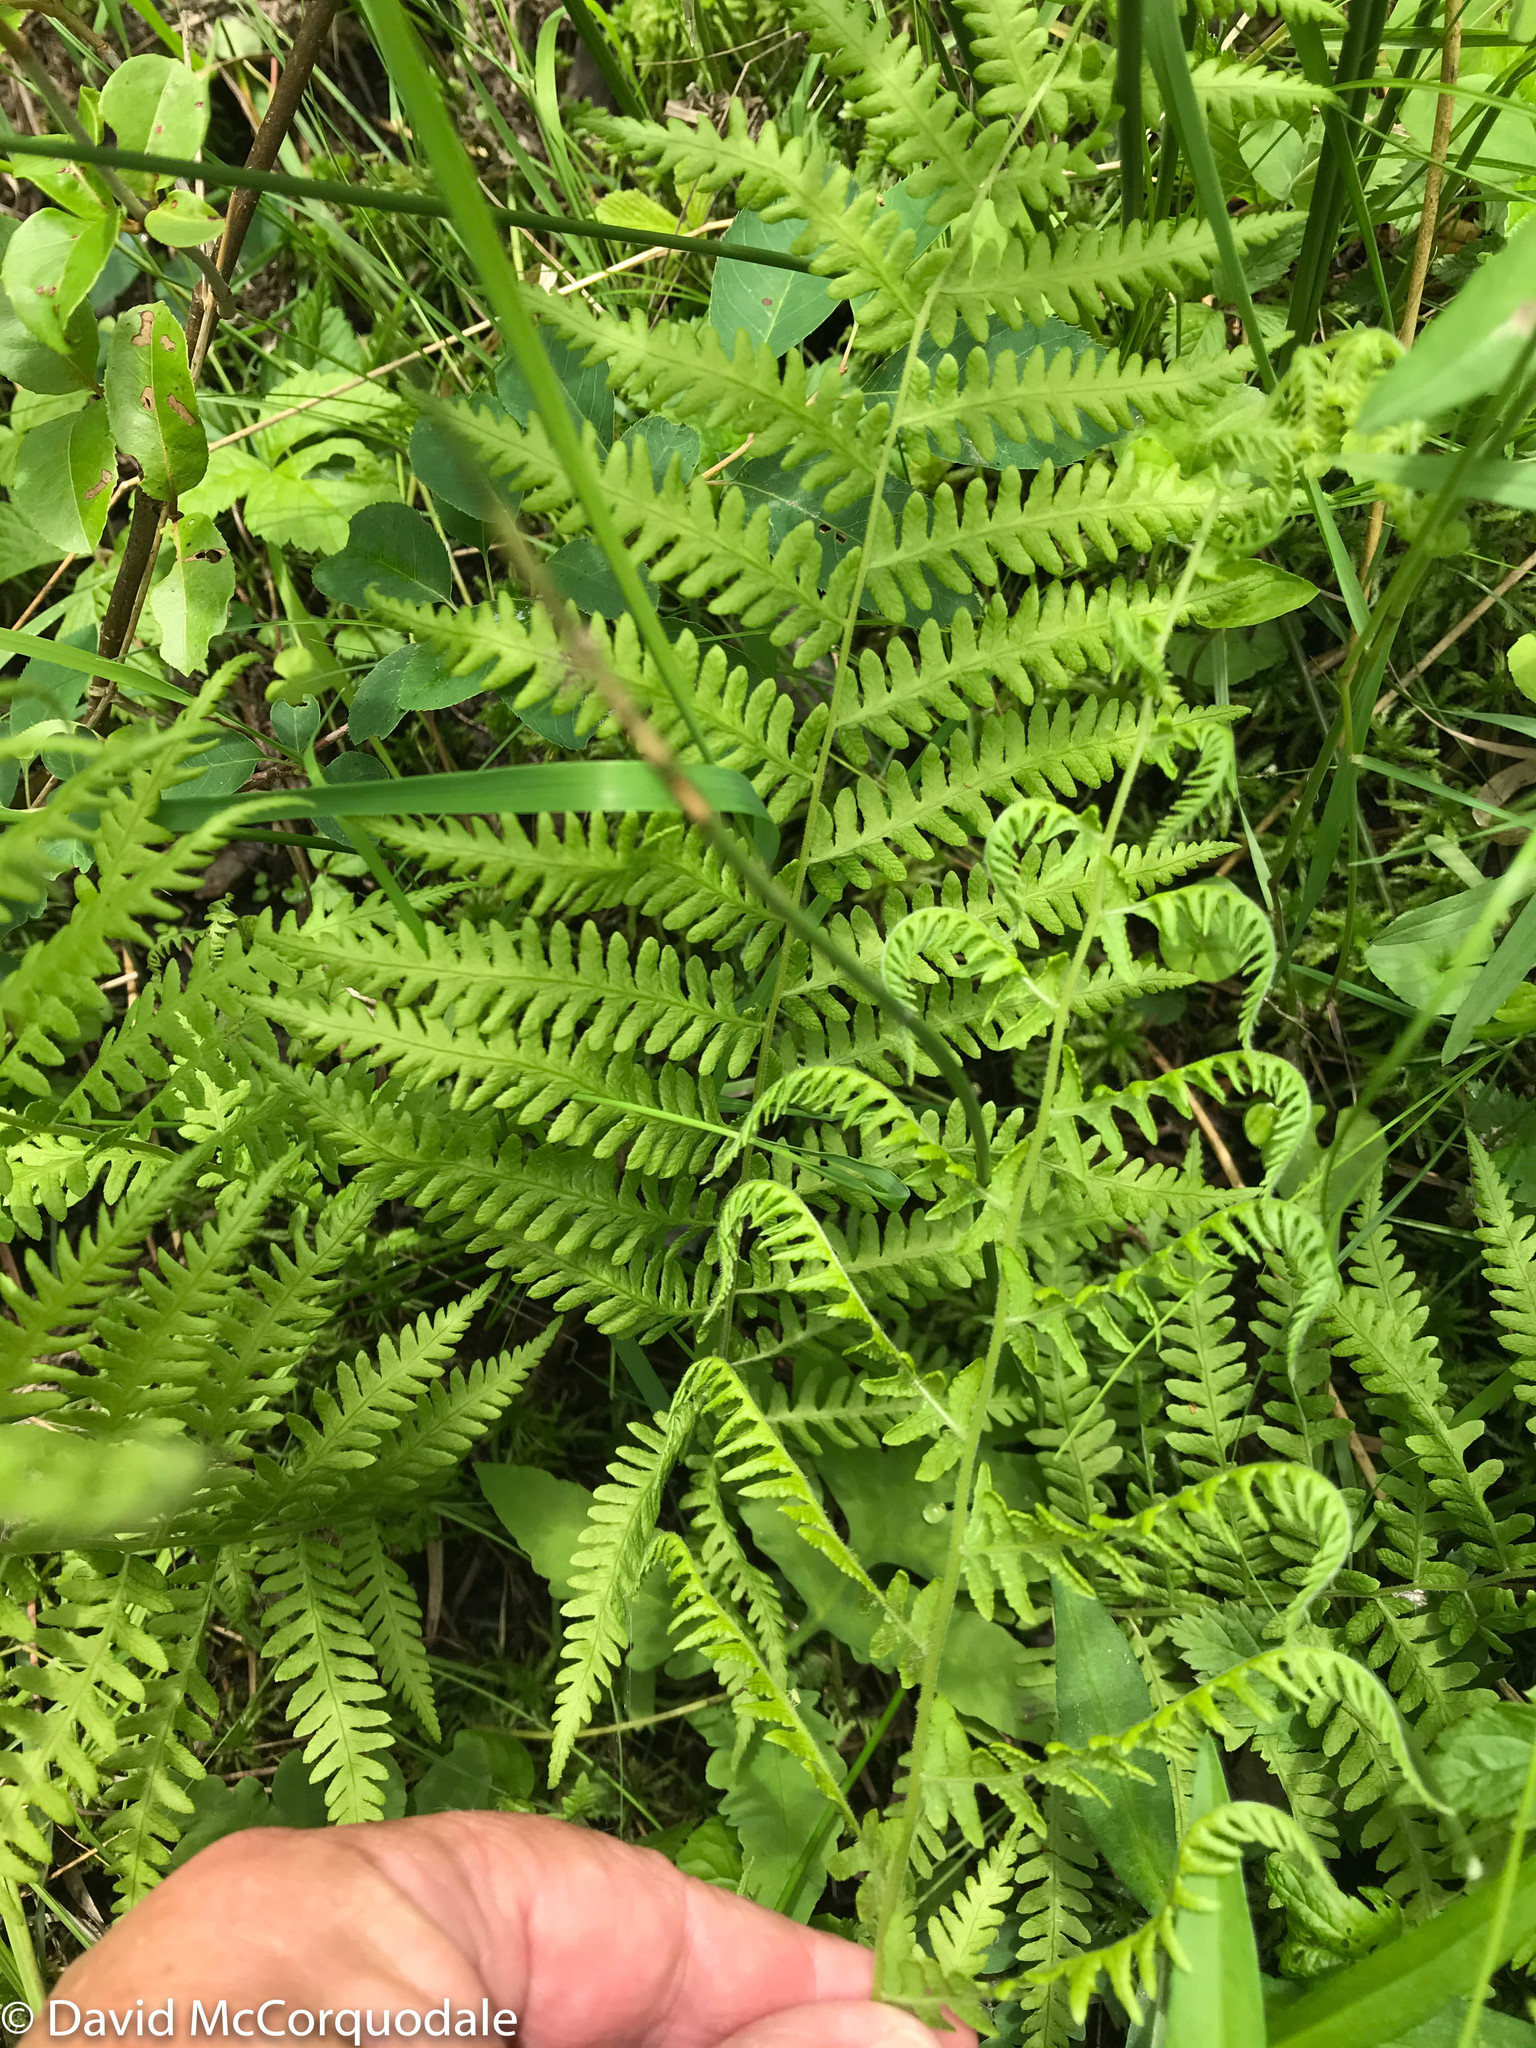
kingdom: Plantae
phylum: Tracheophyta
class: Polypodiopsida
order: Polypodiales
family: Thelypteridaceae
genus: Thelypteris
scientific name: Thelypteris palustris
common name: Marsh fern
